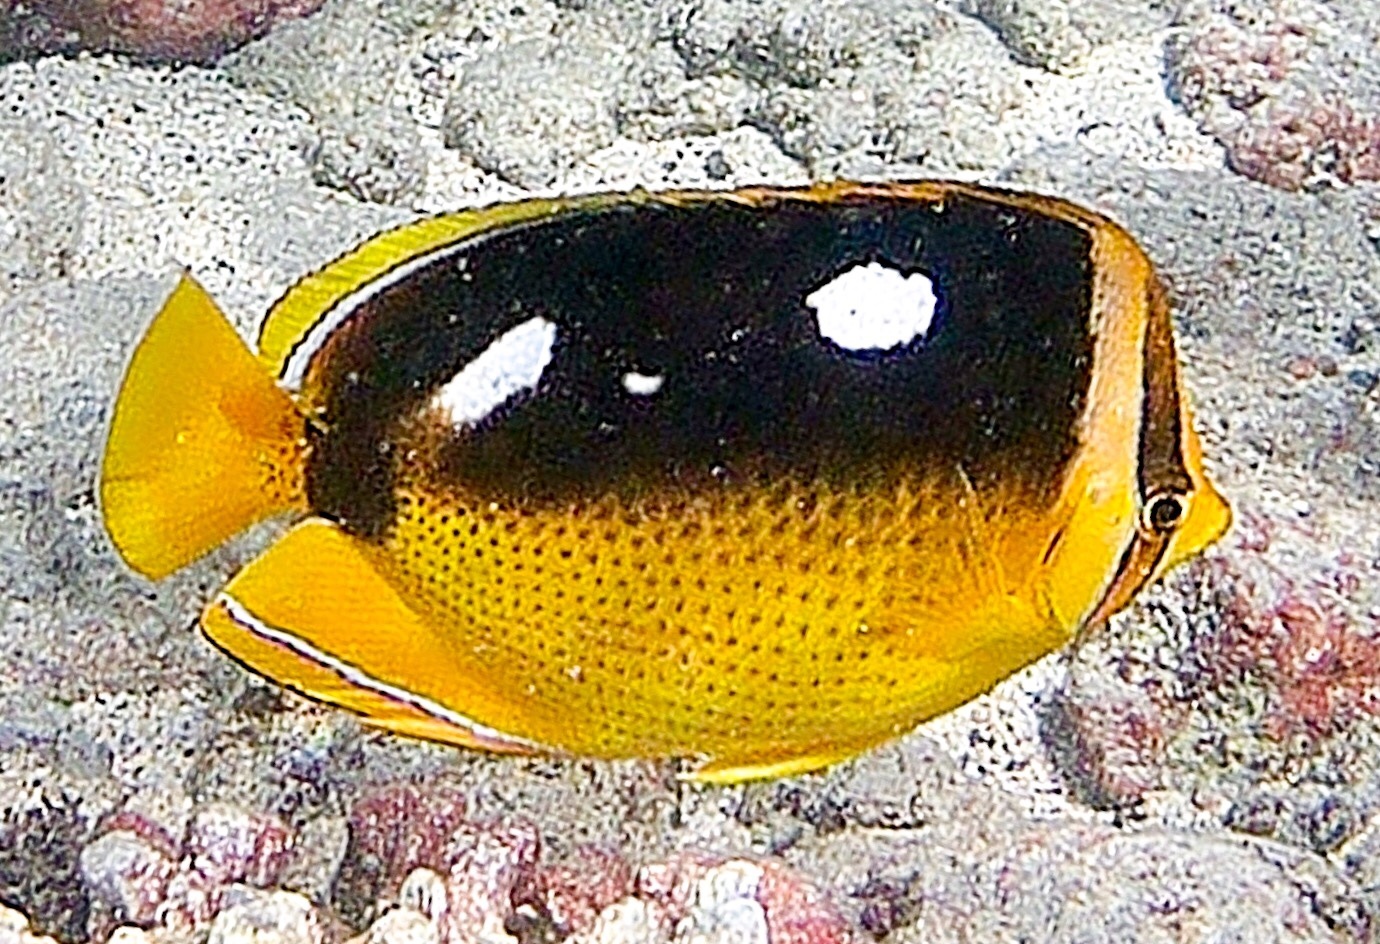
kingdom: Animalia
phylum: Chordata
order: Perciformes
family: Chaetodontidae
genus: Chaetodon
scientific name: Chaetodon quadrimaculatus
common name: Fourspot butterflyfish
